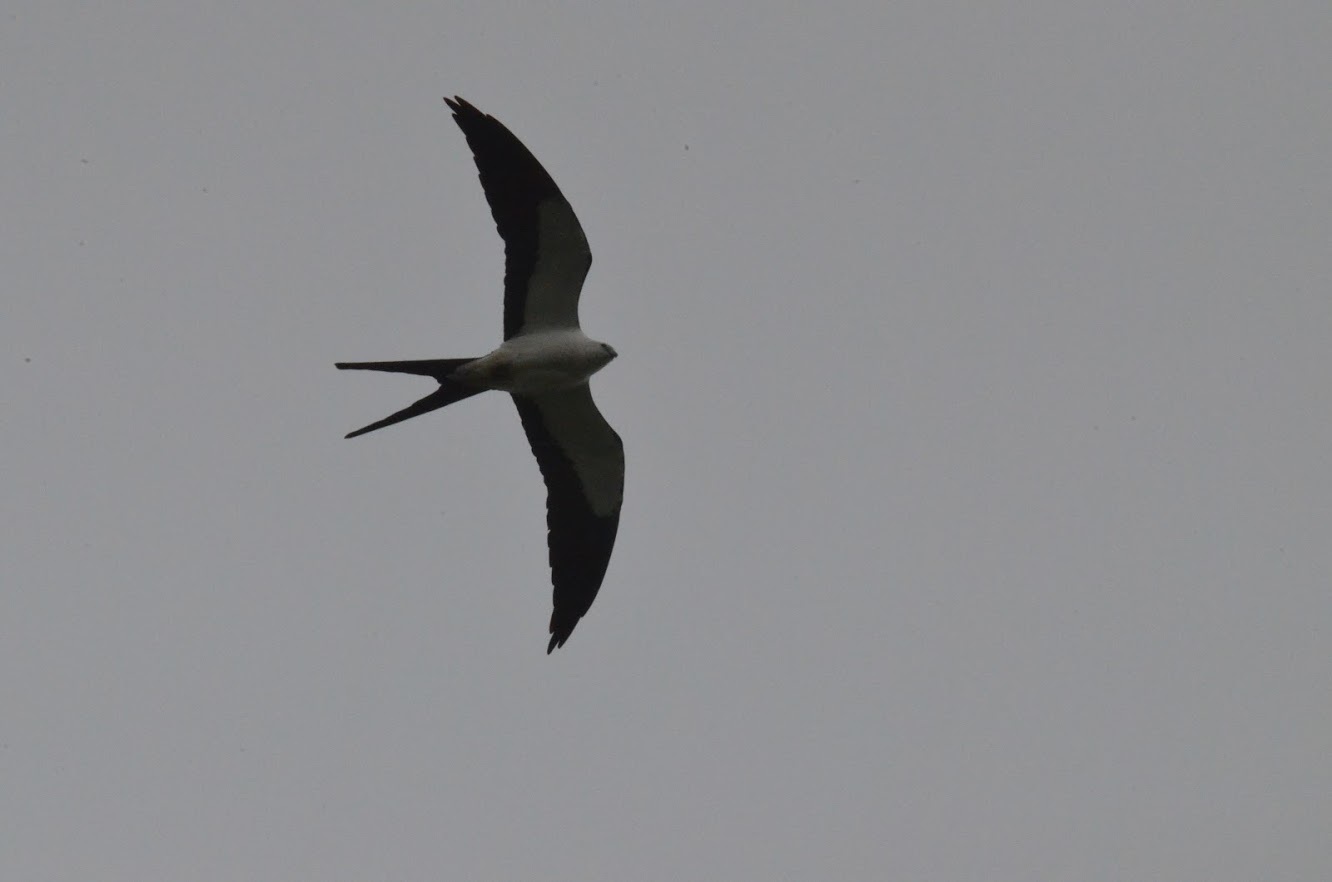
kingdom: Animalia
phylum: Chordata
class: Aves
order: Accipitriformes
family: Accipitridae
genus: Elanoides
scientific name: Elanoides forficatus
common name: Swallow-tailed kite
